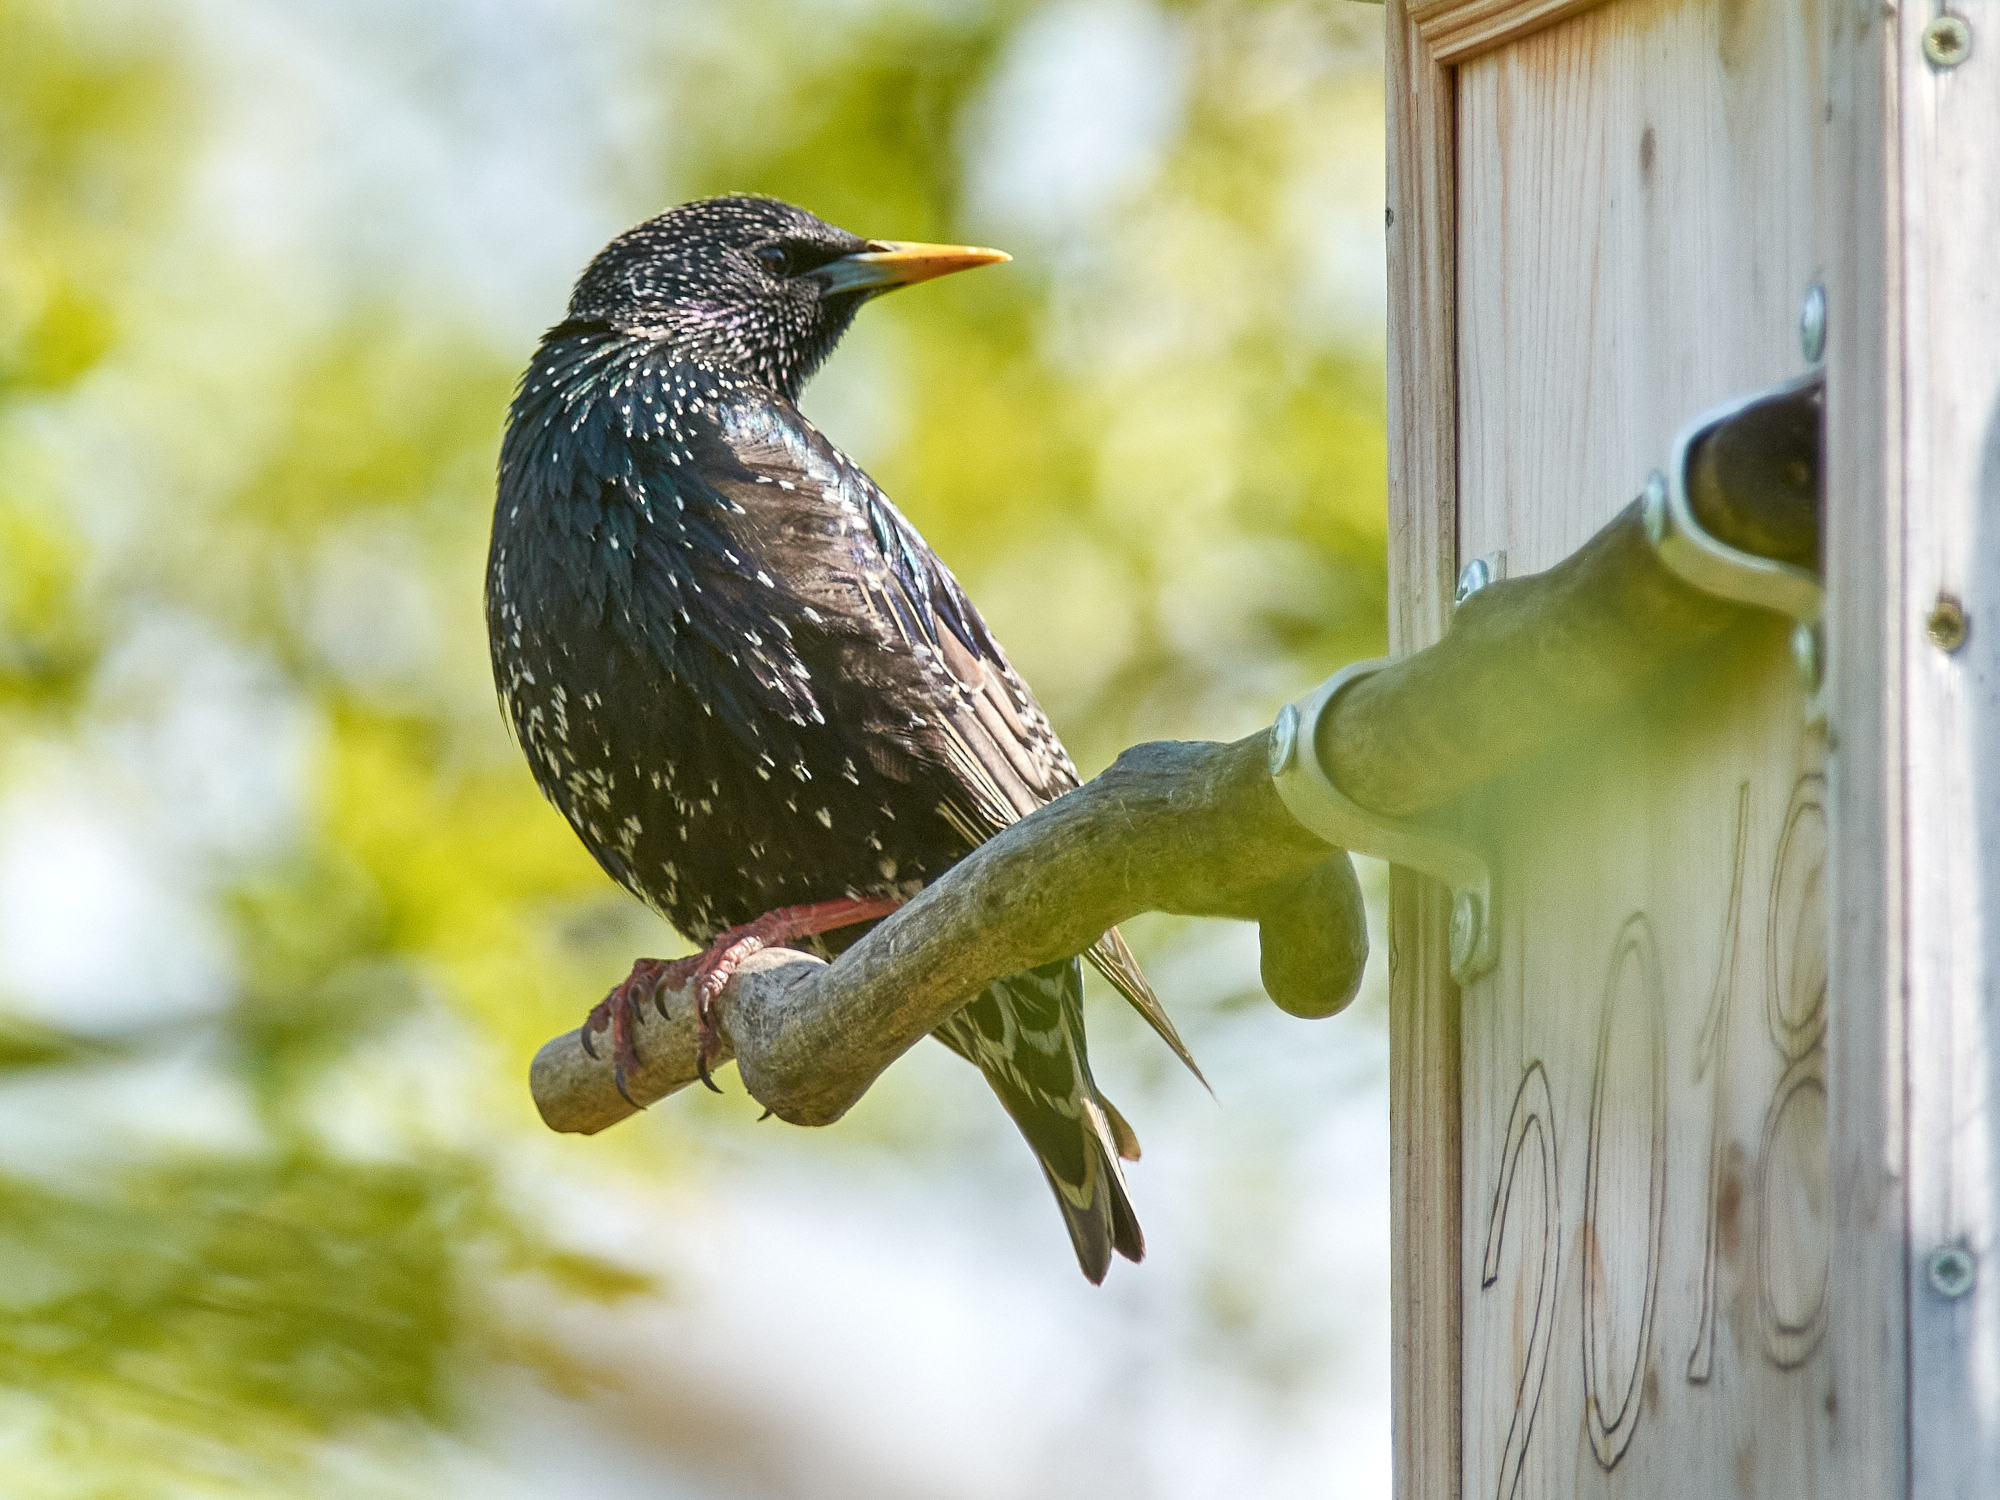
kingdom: Animalia
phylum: Chordata
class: Aves
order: Passeriformes
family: Sturnidae
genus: Sturnus
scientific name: Sturnus vulgaris
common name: Common starling
